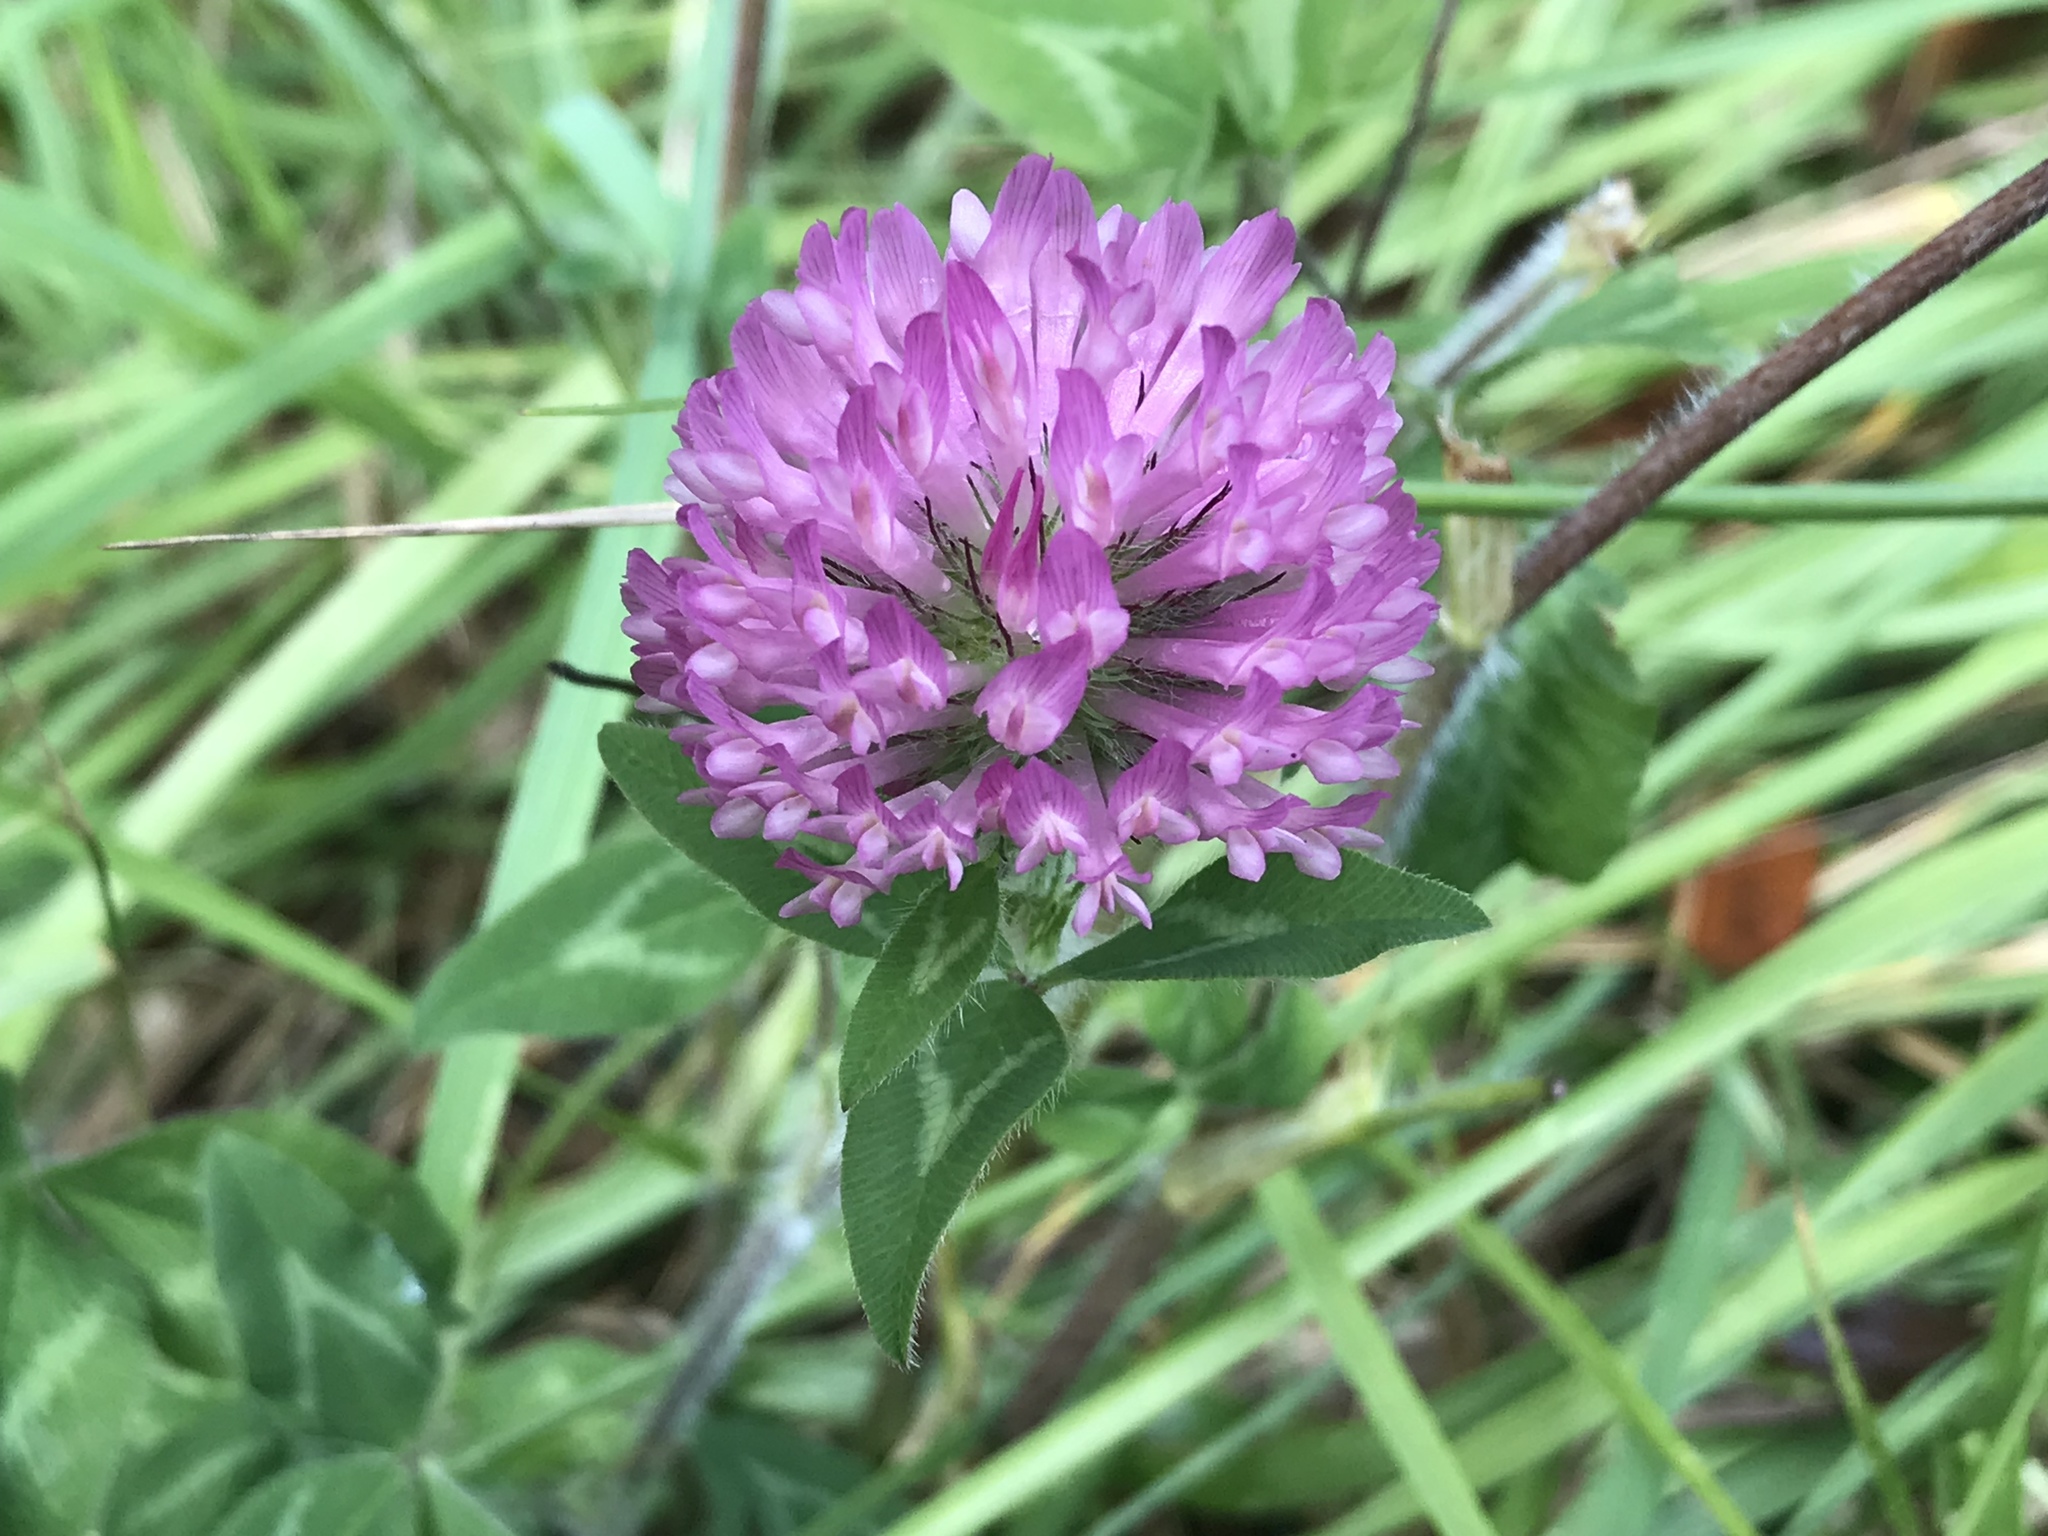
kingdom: Plantae
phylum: Tracheophyta
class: Magnoliopsida
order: Fabales
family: Fabaceae
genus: Trifolium
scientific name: Trifolium pratense
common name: Red clover
